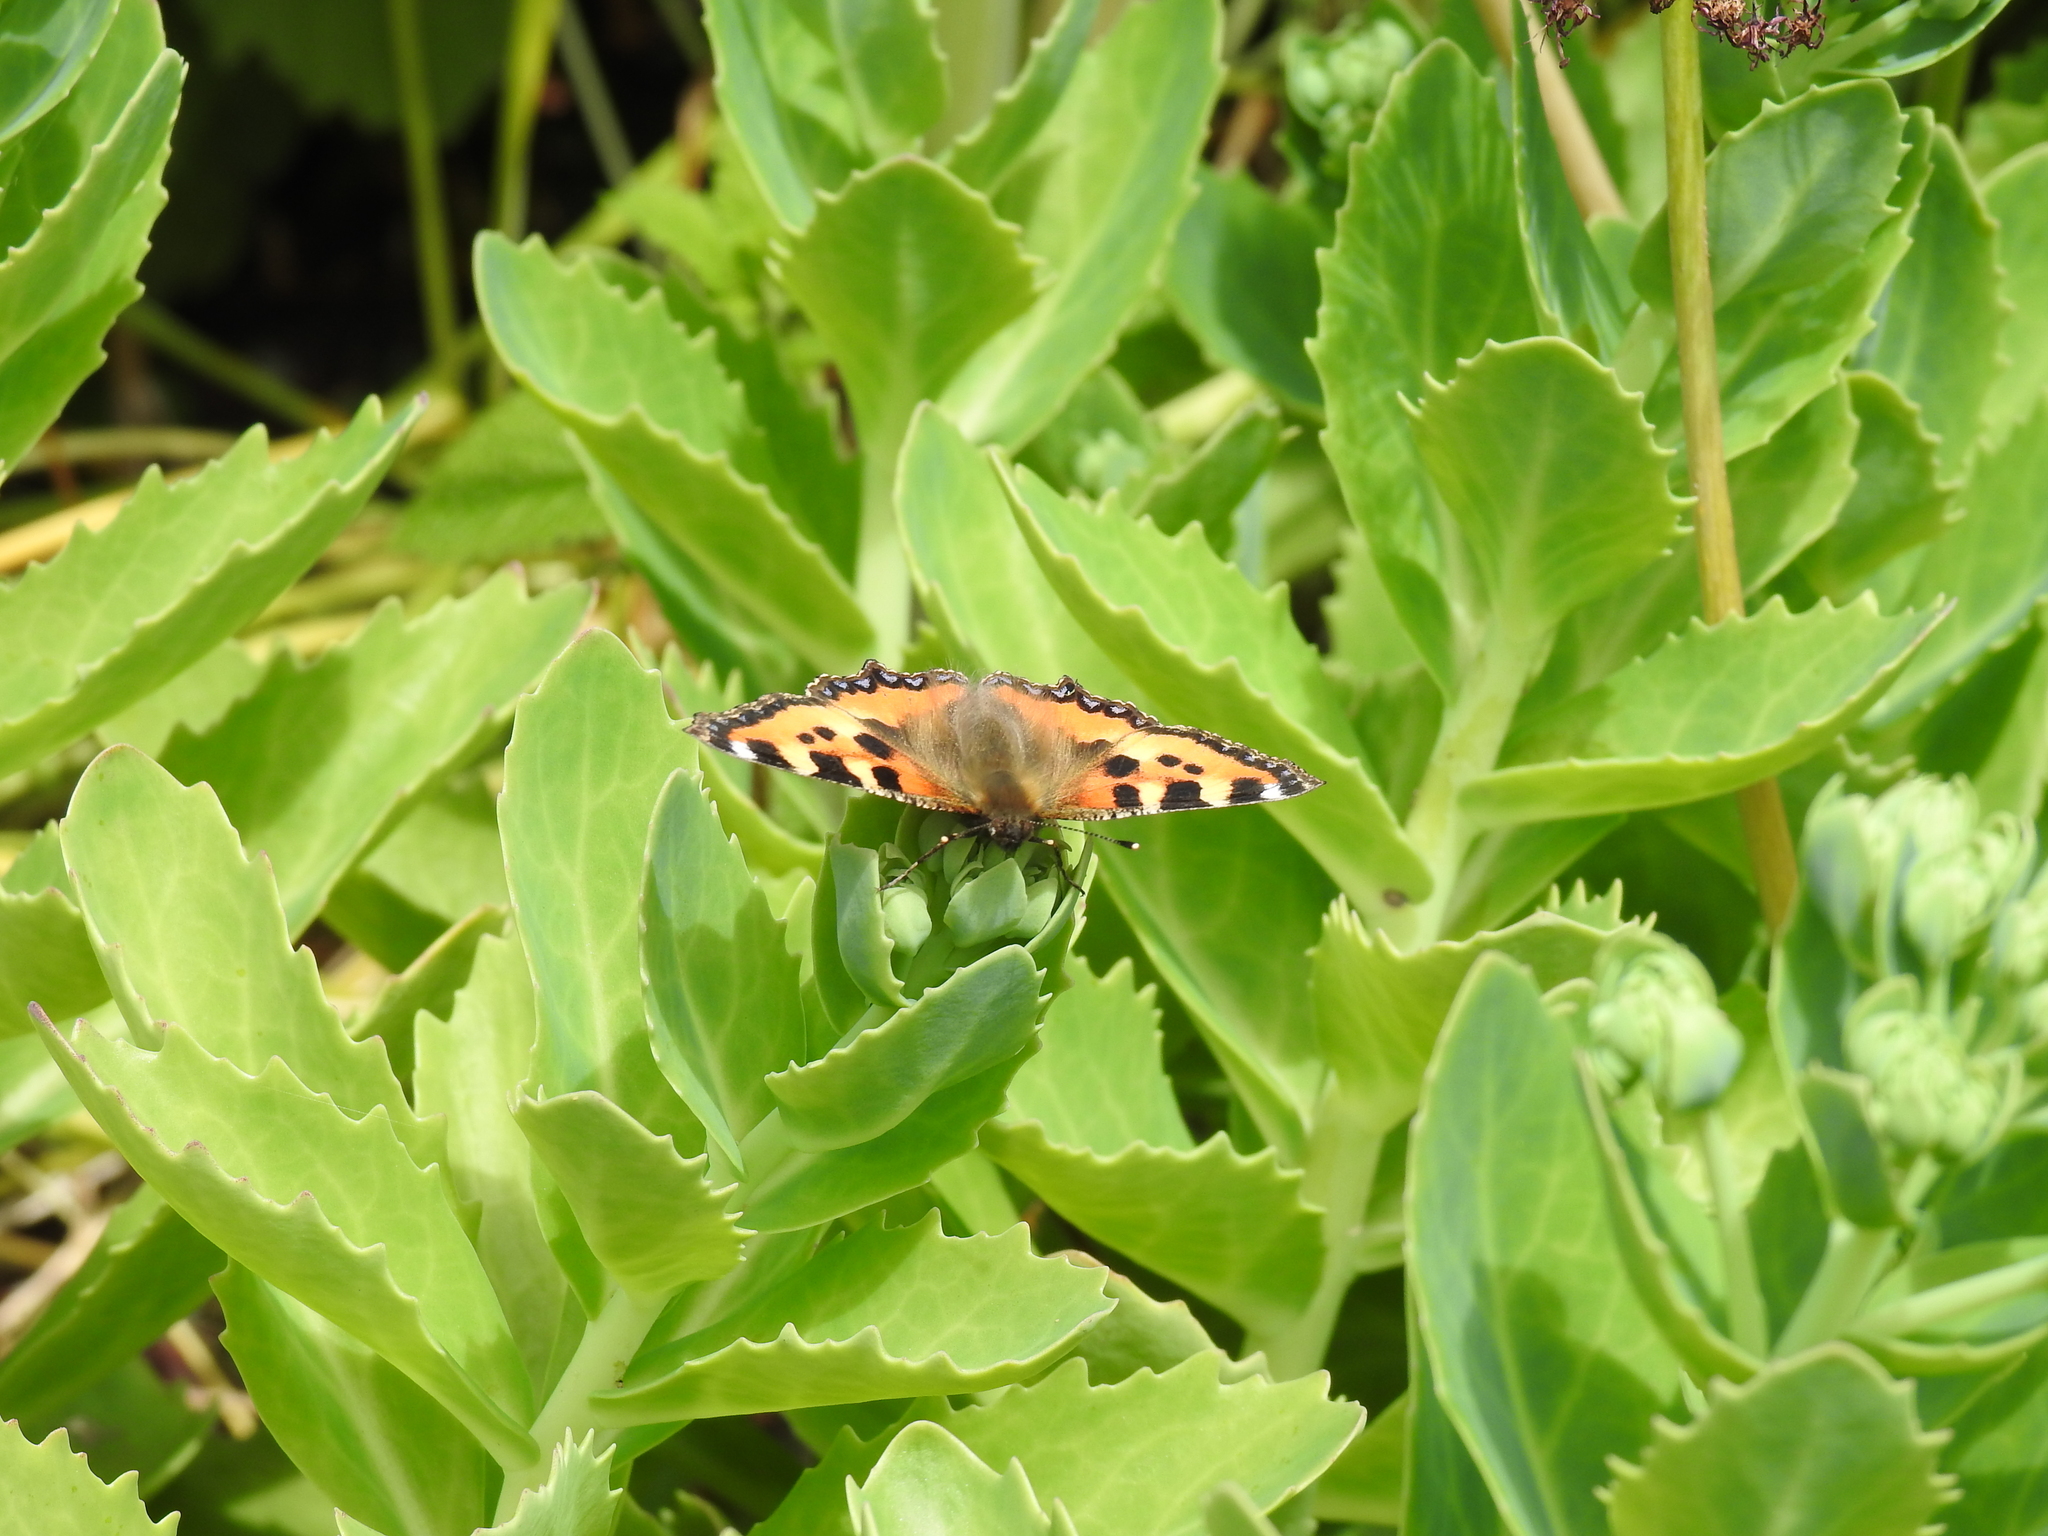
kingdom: Animalia
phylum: Arthropoda
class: Insecta
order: Lepidoptera
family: Nymphalidae
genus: Aglais
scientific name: Aglais urticae
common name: Small tortoiseshell
